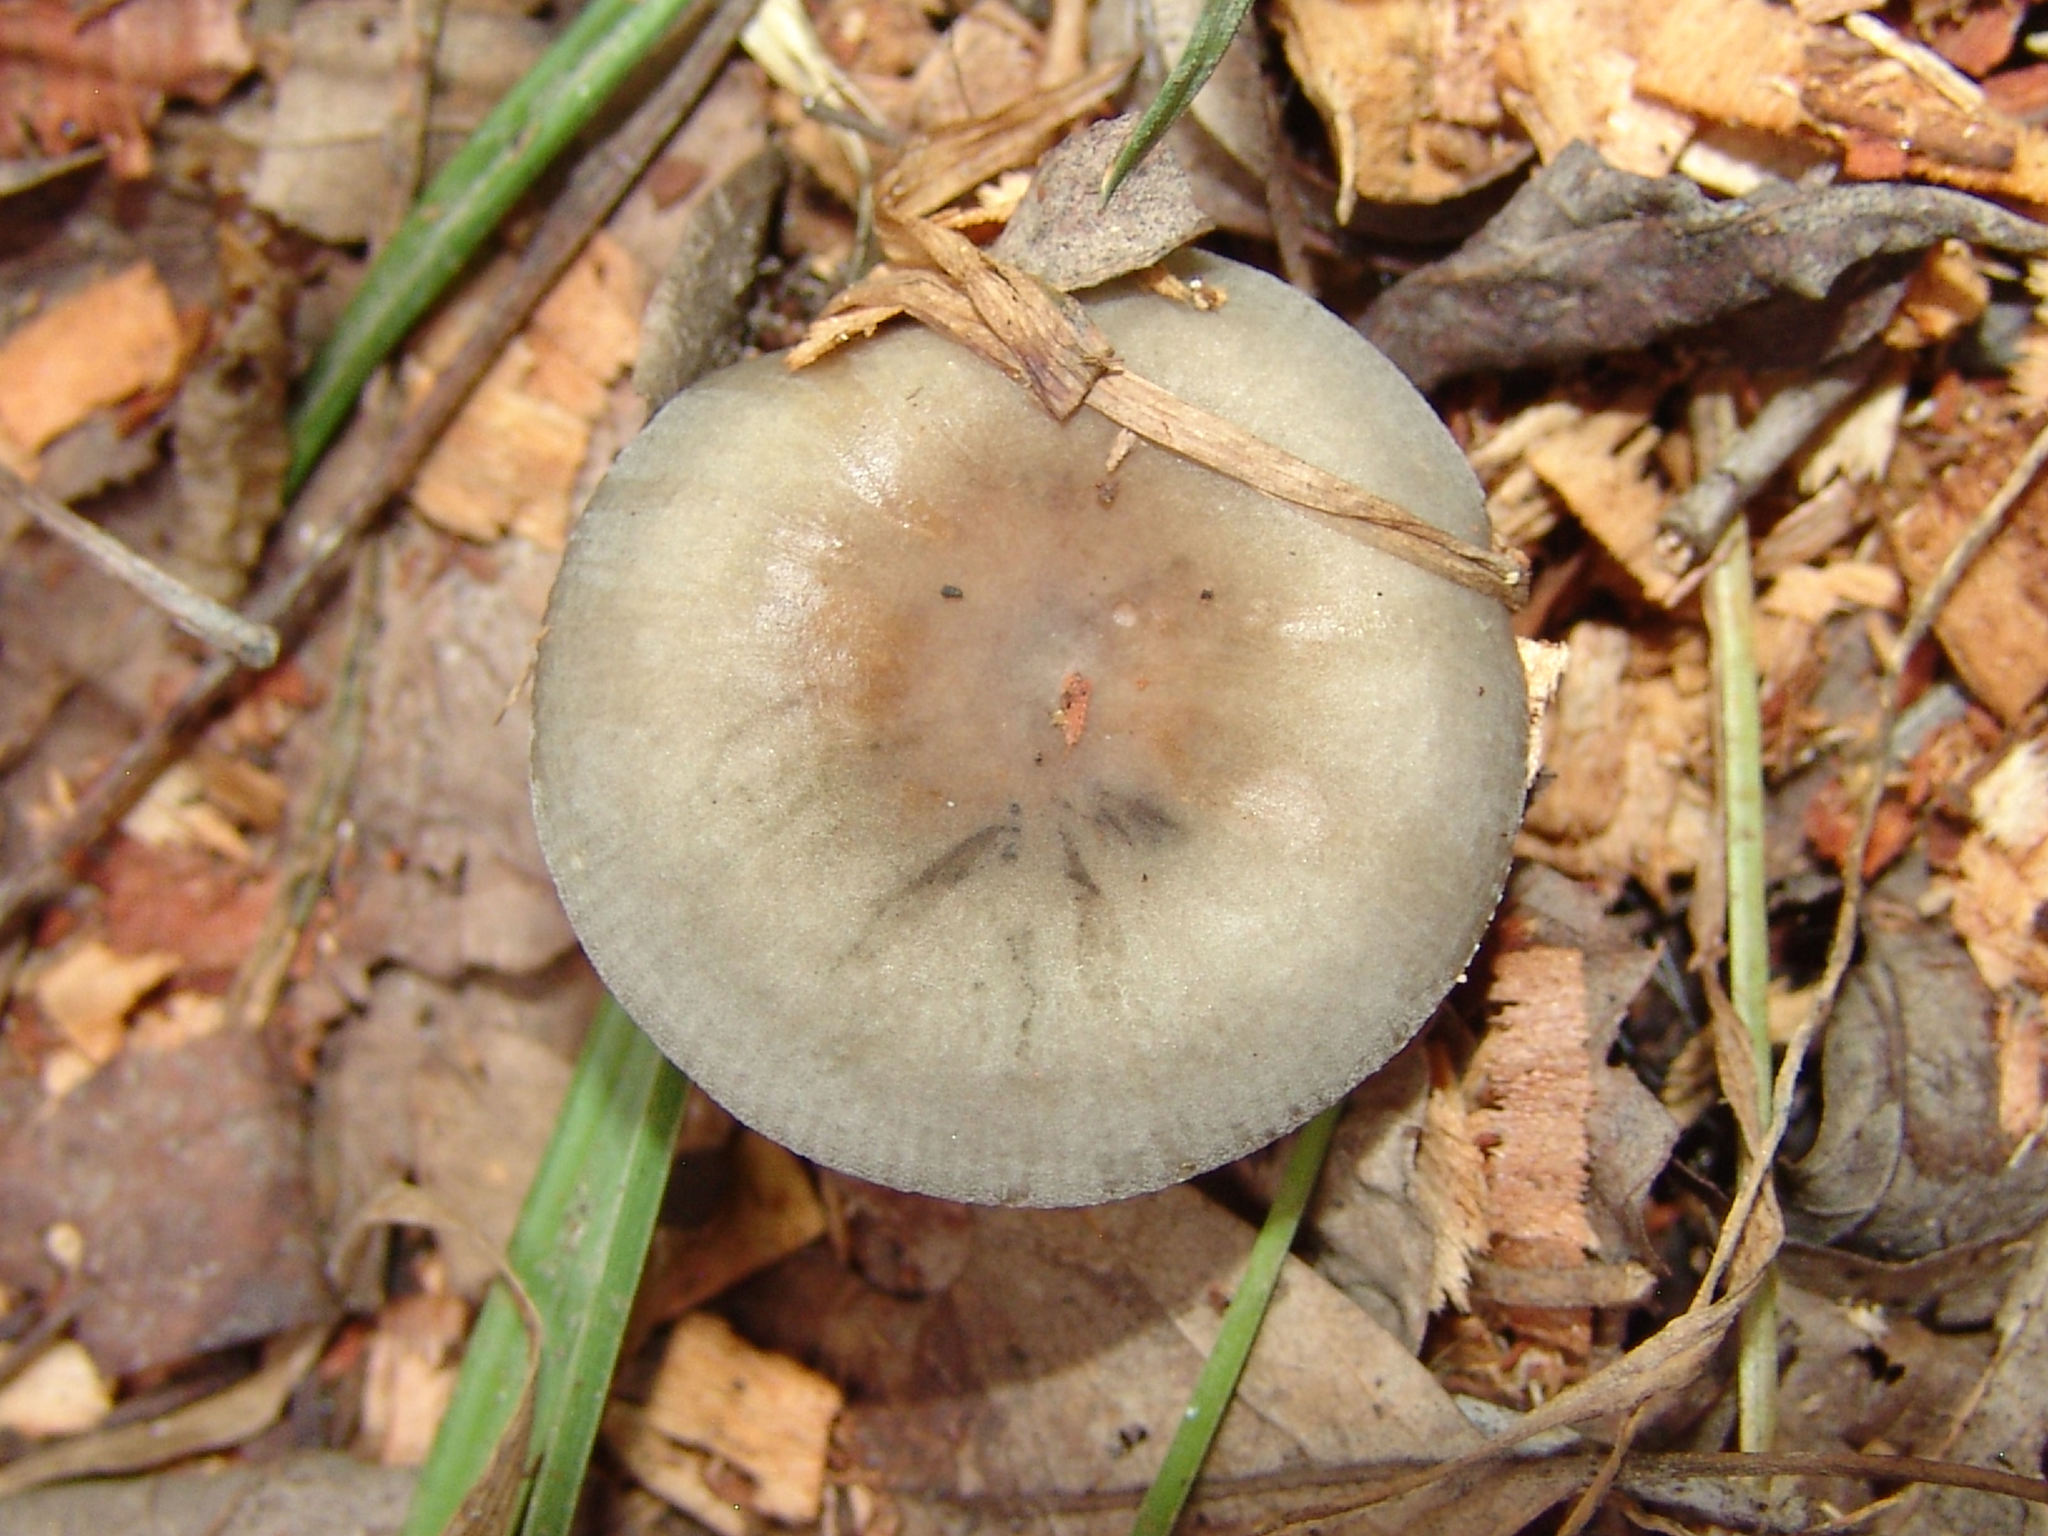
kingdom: Fungi
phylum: Basidiomycota
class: Agaricomycetes
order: Russulales
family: Russulaceae
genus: Russula
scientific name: Russula
